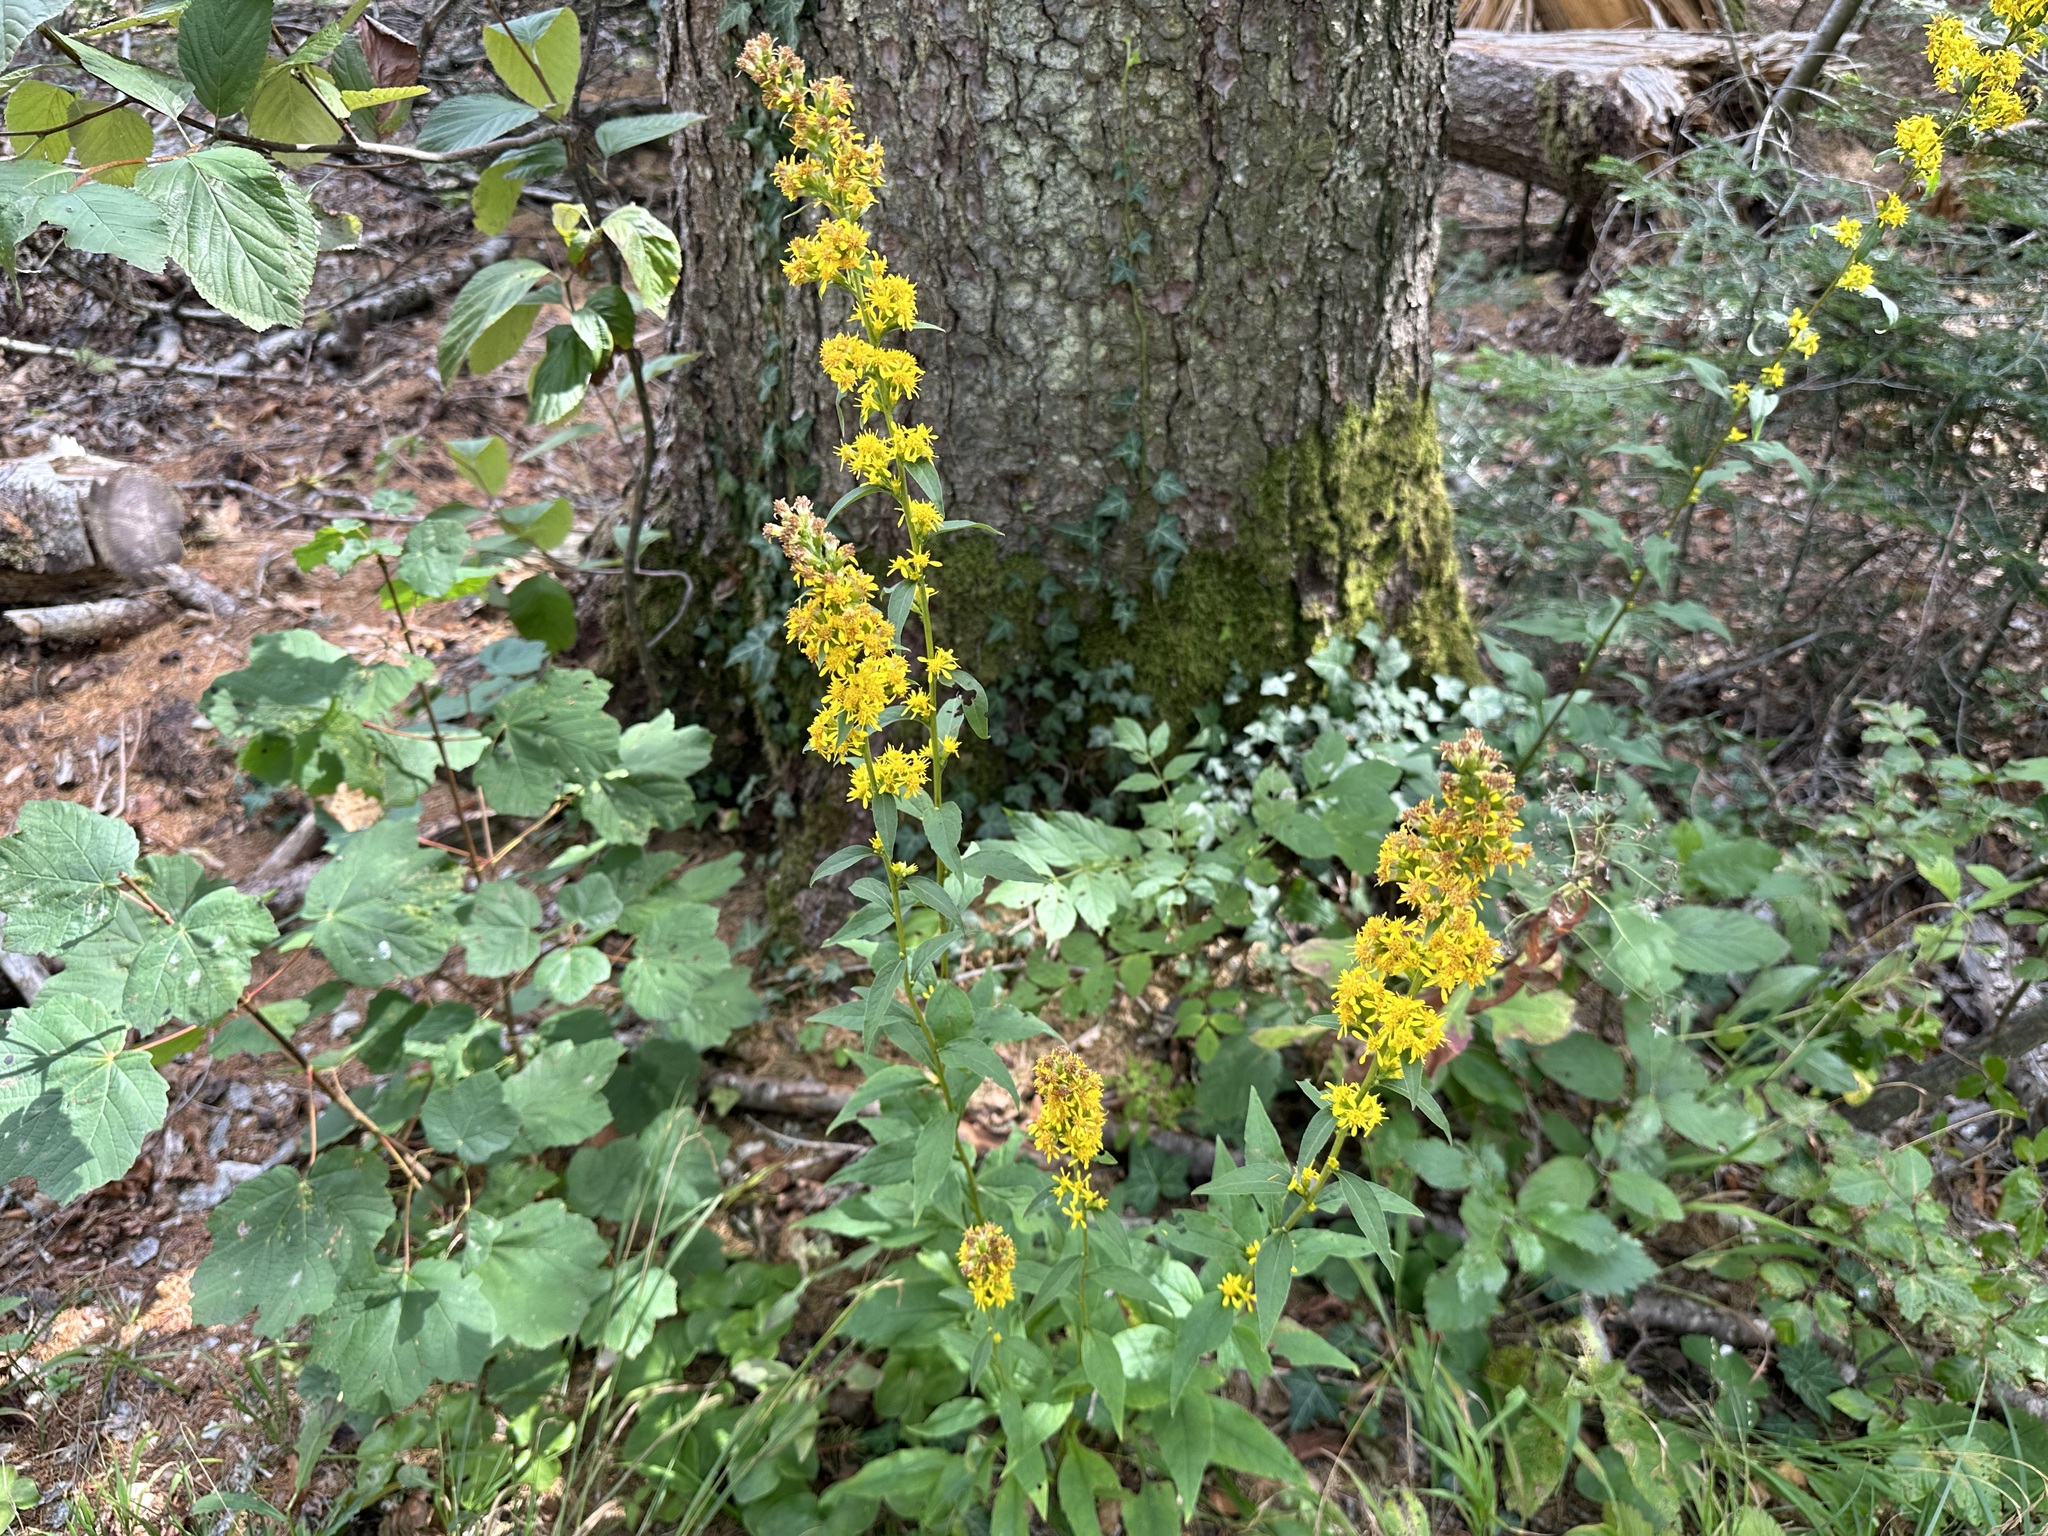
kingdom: Plantae
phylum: Tracheophyta
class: Magnoliopsida
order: Asterales
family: Asteraceae
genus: Solidago
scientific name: Solidago virgaurea
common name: Goldenrod
